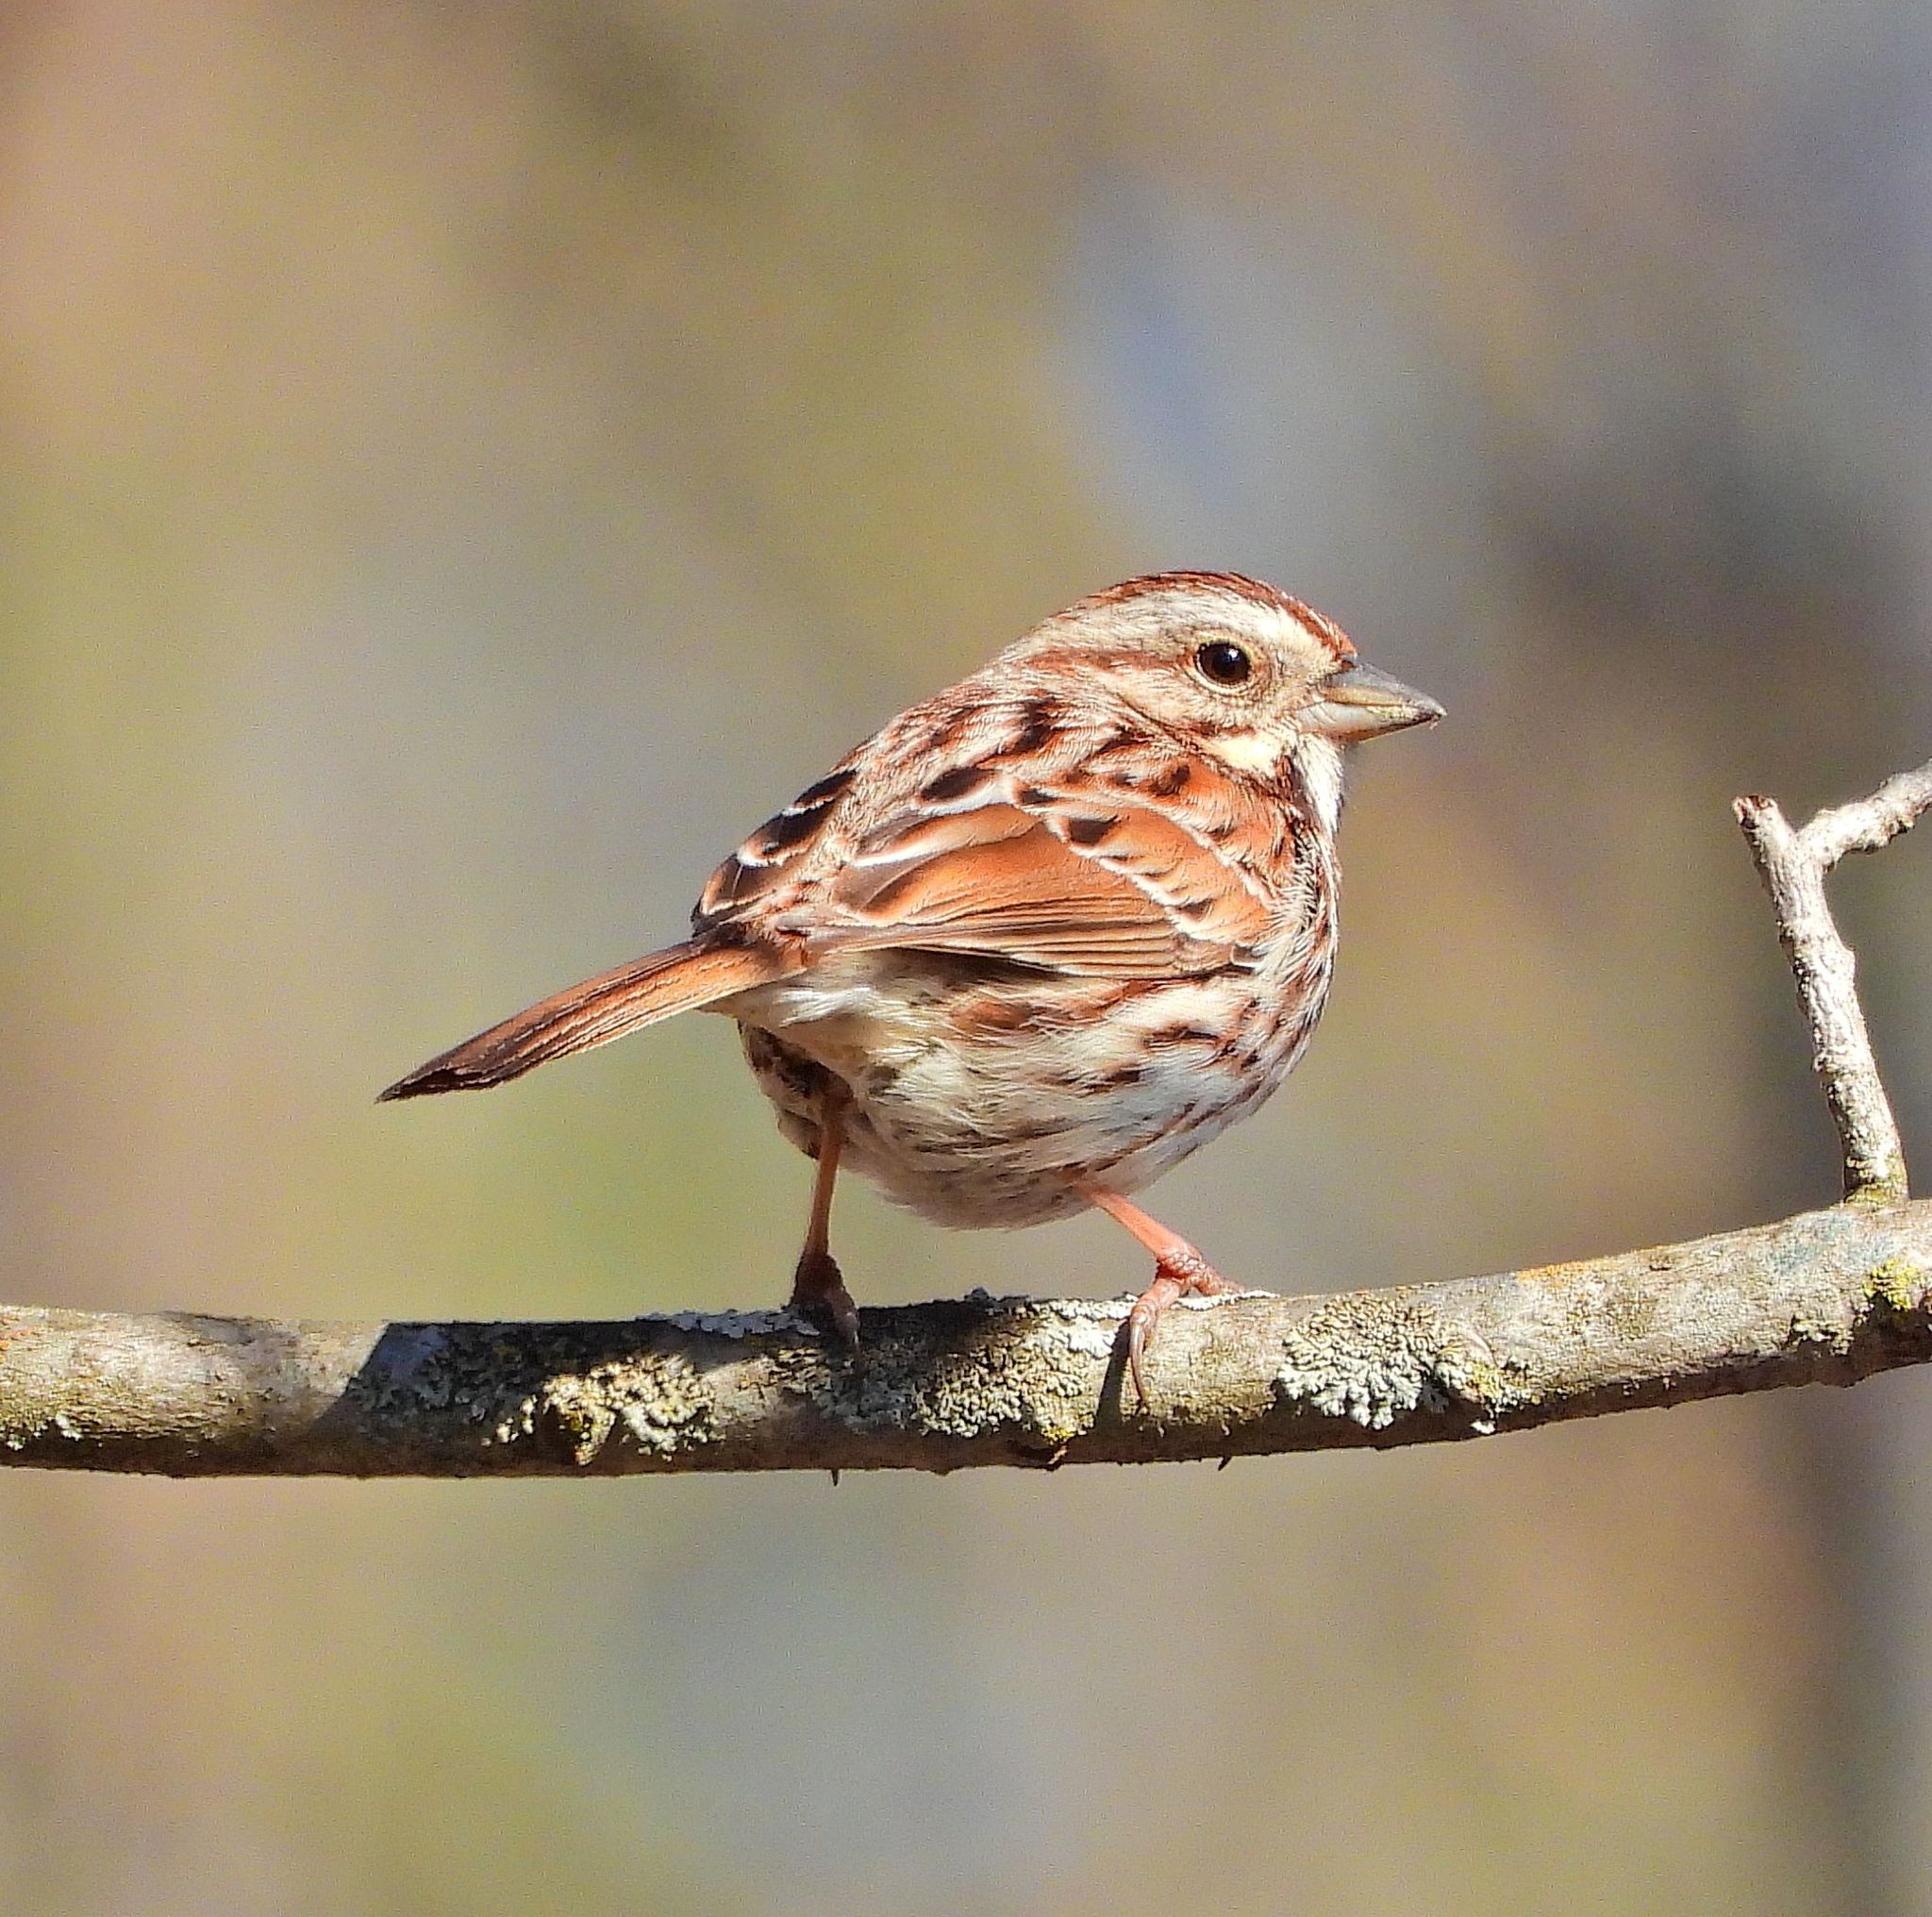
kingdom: Animalia
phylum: Chordata
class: Aves
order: Passeriformes
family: Passerellidae
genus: Melospiza
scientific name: Melospiza melodia
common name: Song sparrow
